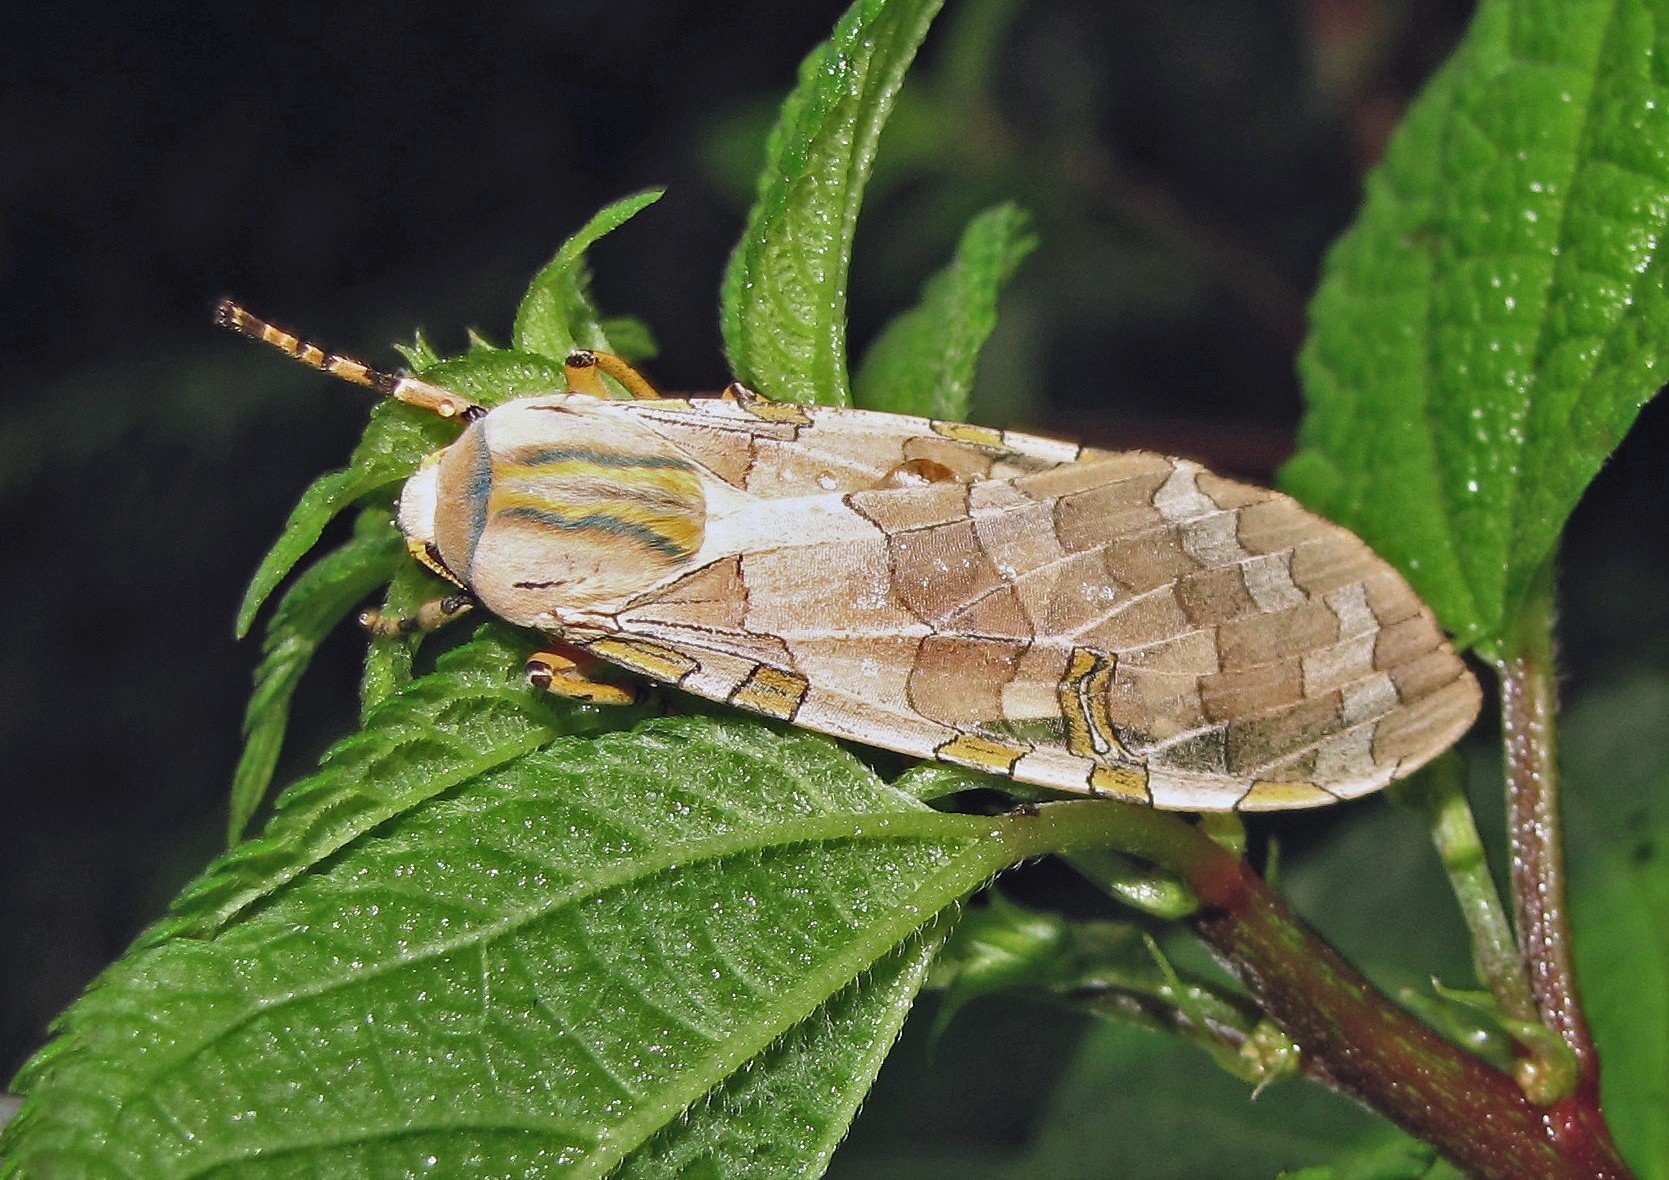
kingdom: Animalia
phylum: Arthropoda
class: Insecta
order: Lepidoptera
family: Erebidae
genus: Halysidota
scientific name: Halysidota tucumanicola
